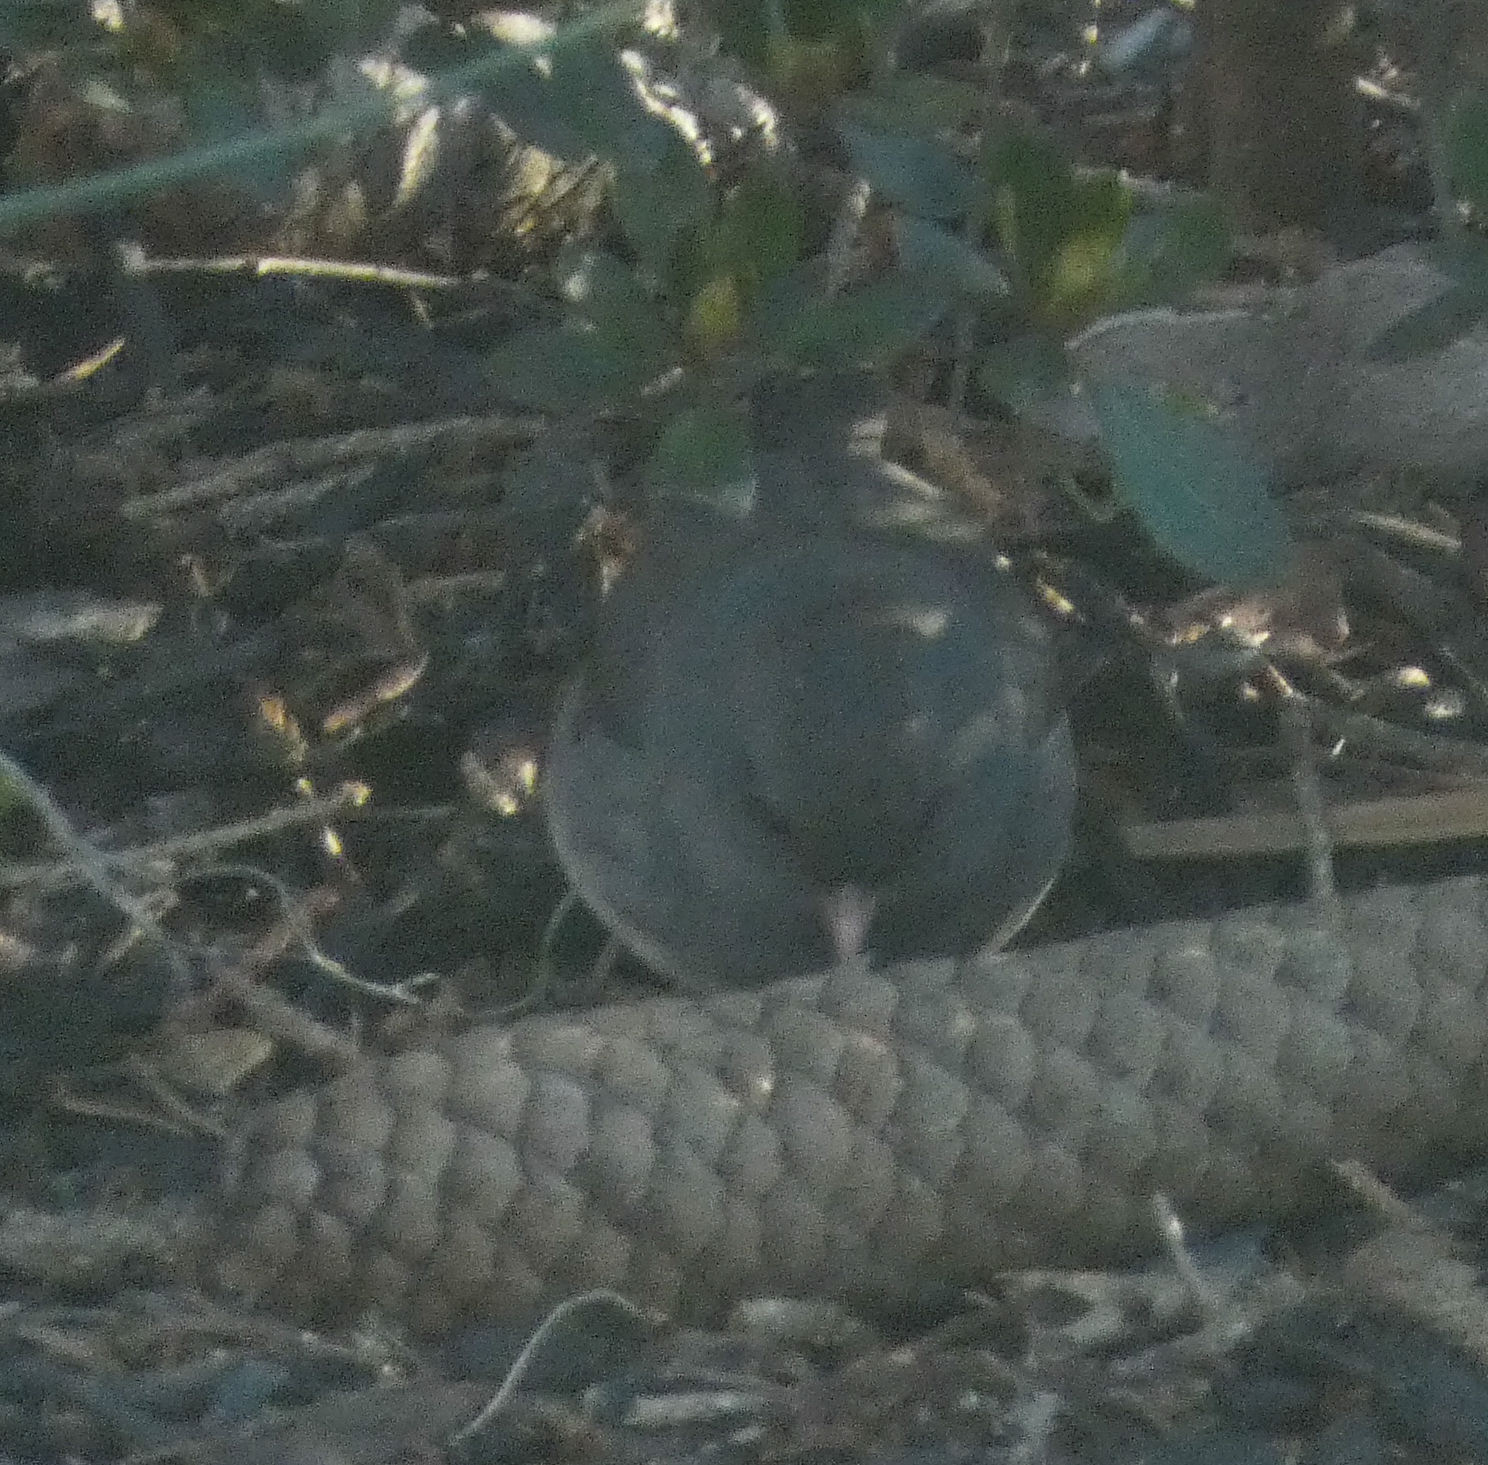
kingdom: Animalia
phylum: Chordata
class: Aves
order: Passeriformes
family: Passerellidae
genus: Junco
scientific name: Junco hyemalis
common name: Dark-eyed junco
